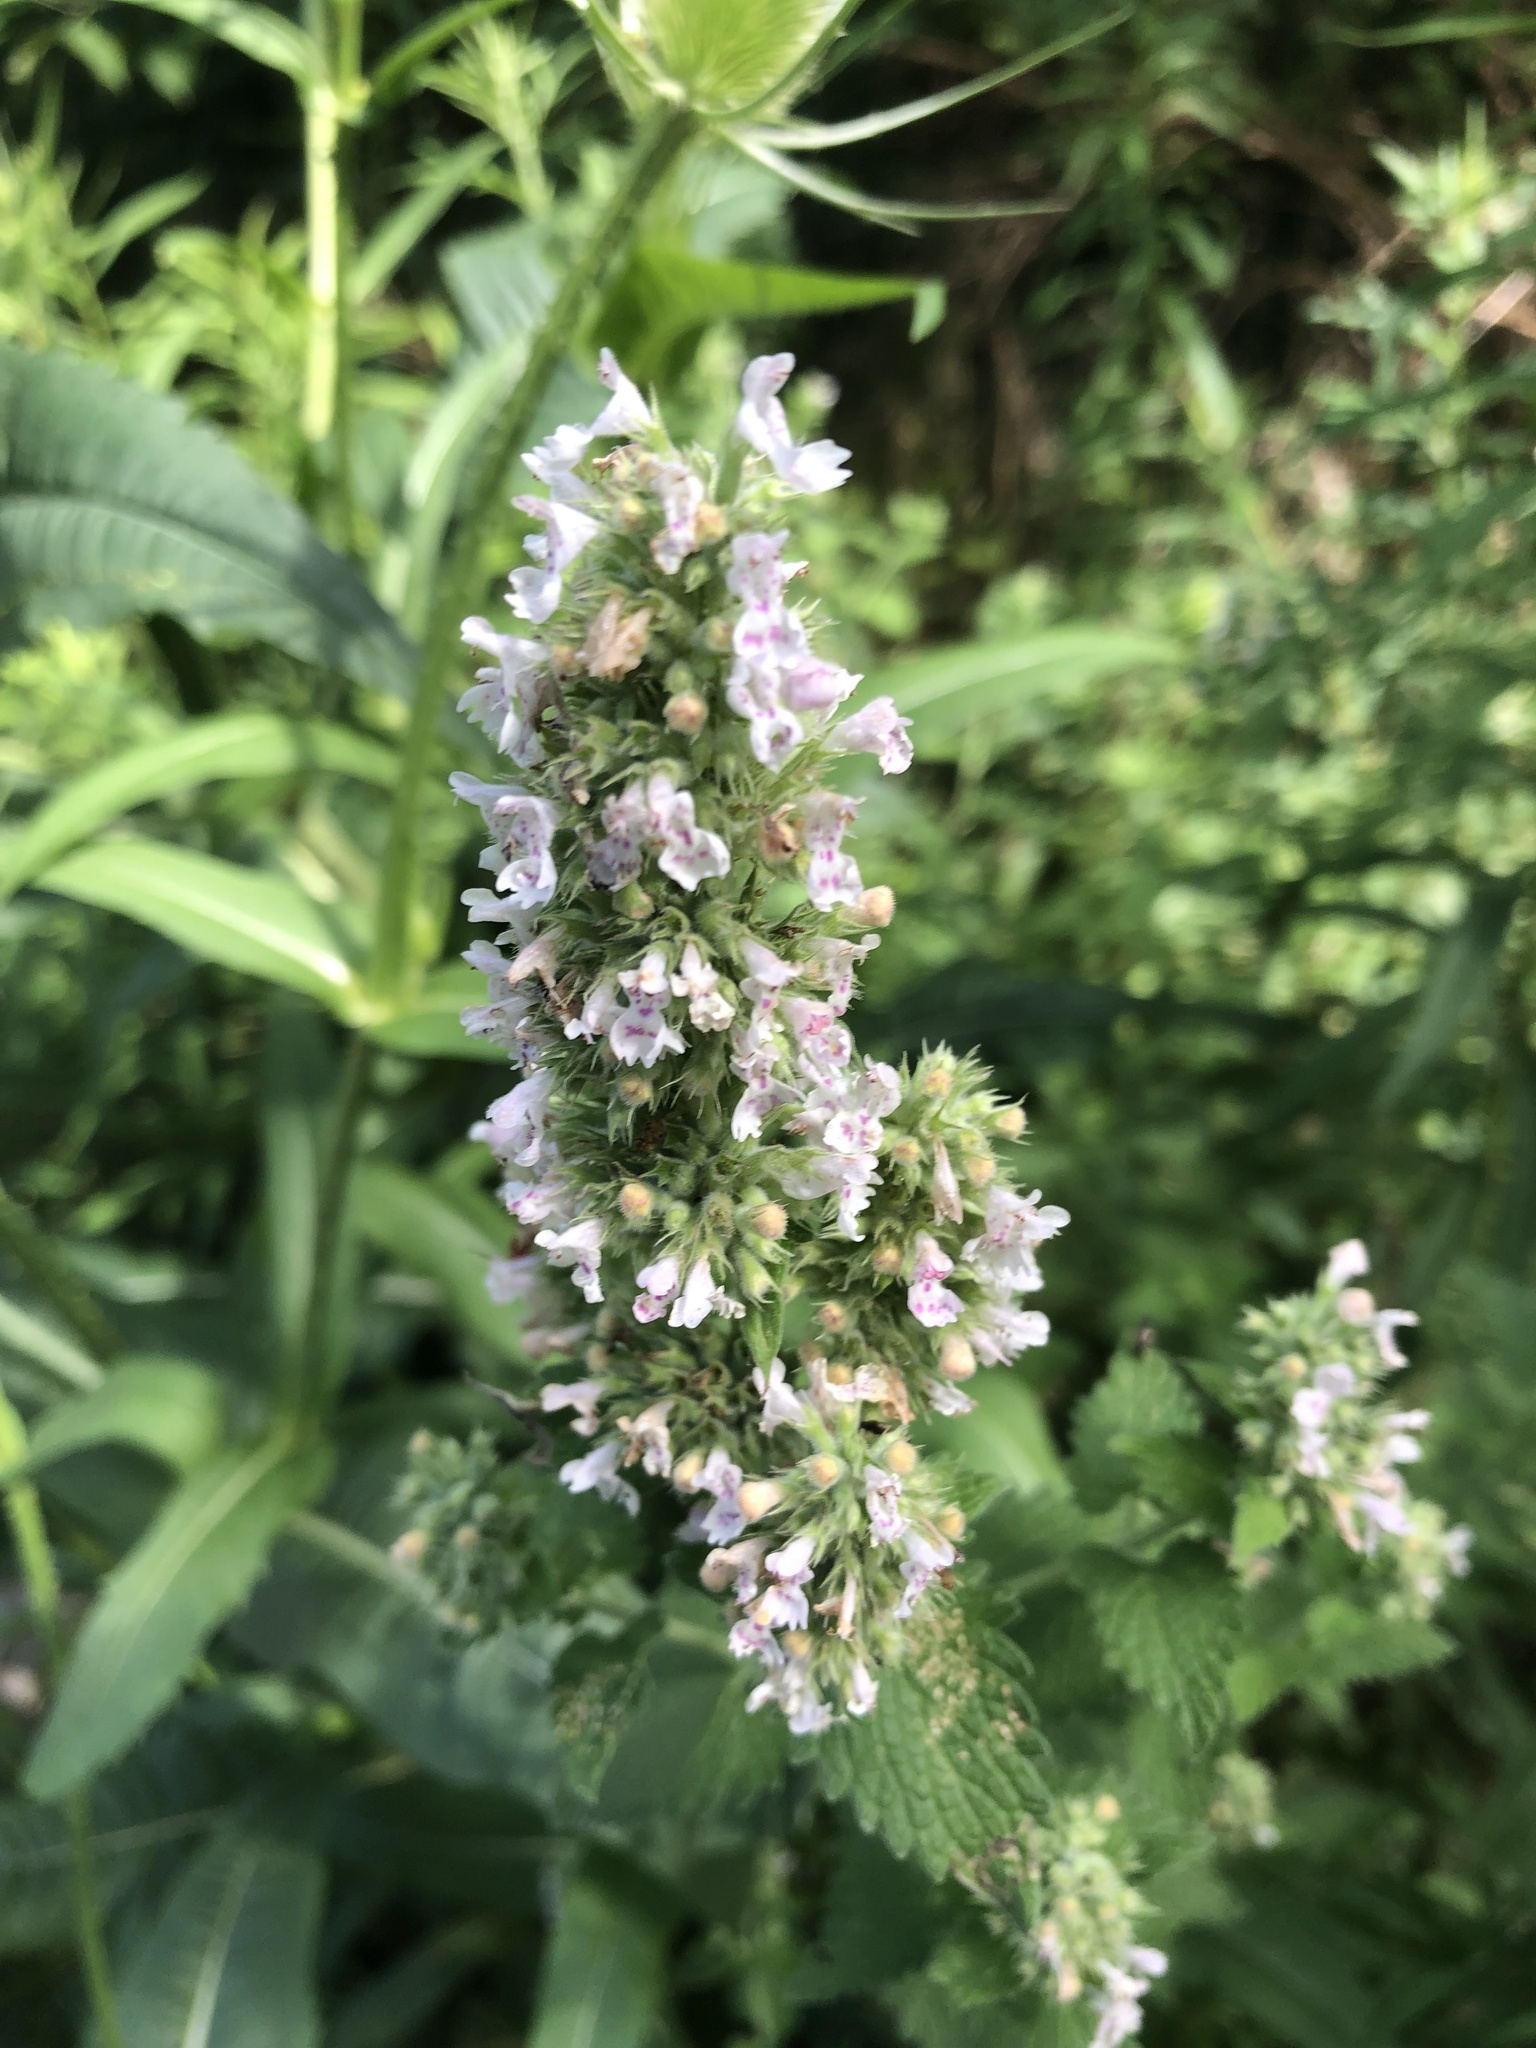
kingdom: Plantae
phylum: Tracheophyta
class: Magnoliopsida
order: Lamiales
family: Lamiaceae
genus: Nepeta
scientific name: Nepeta cataria
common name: Catnip
